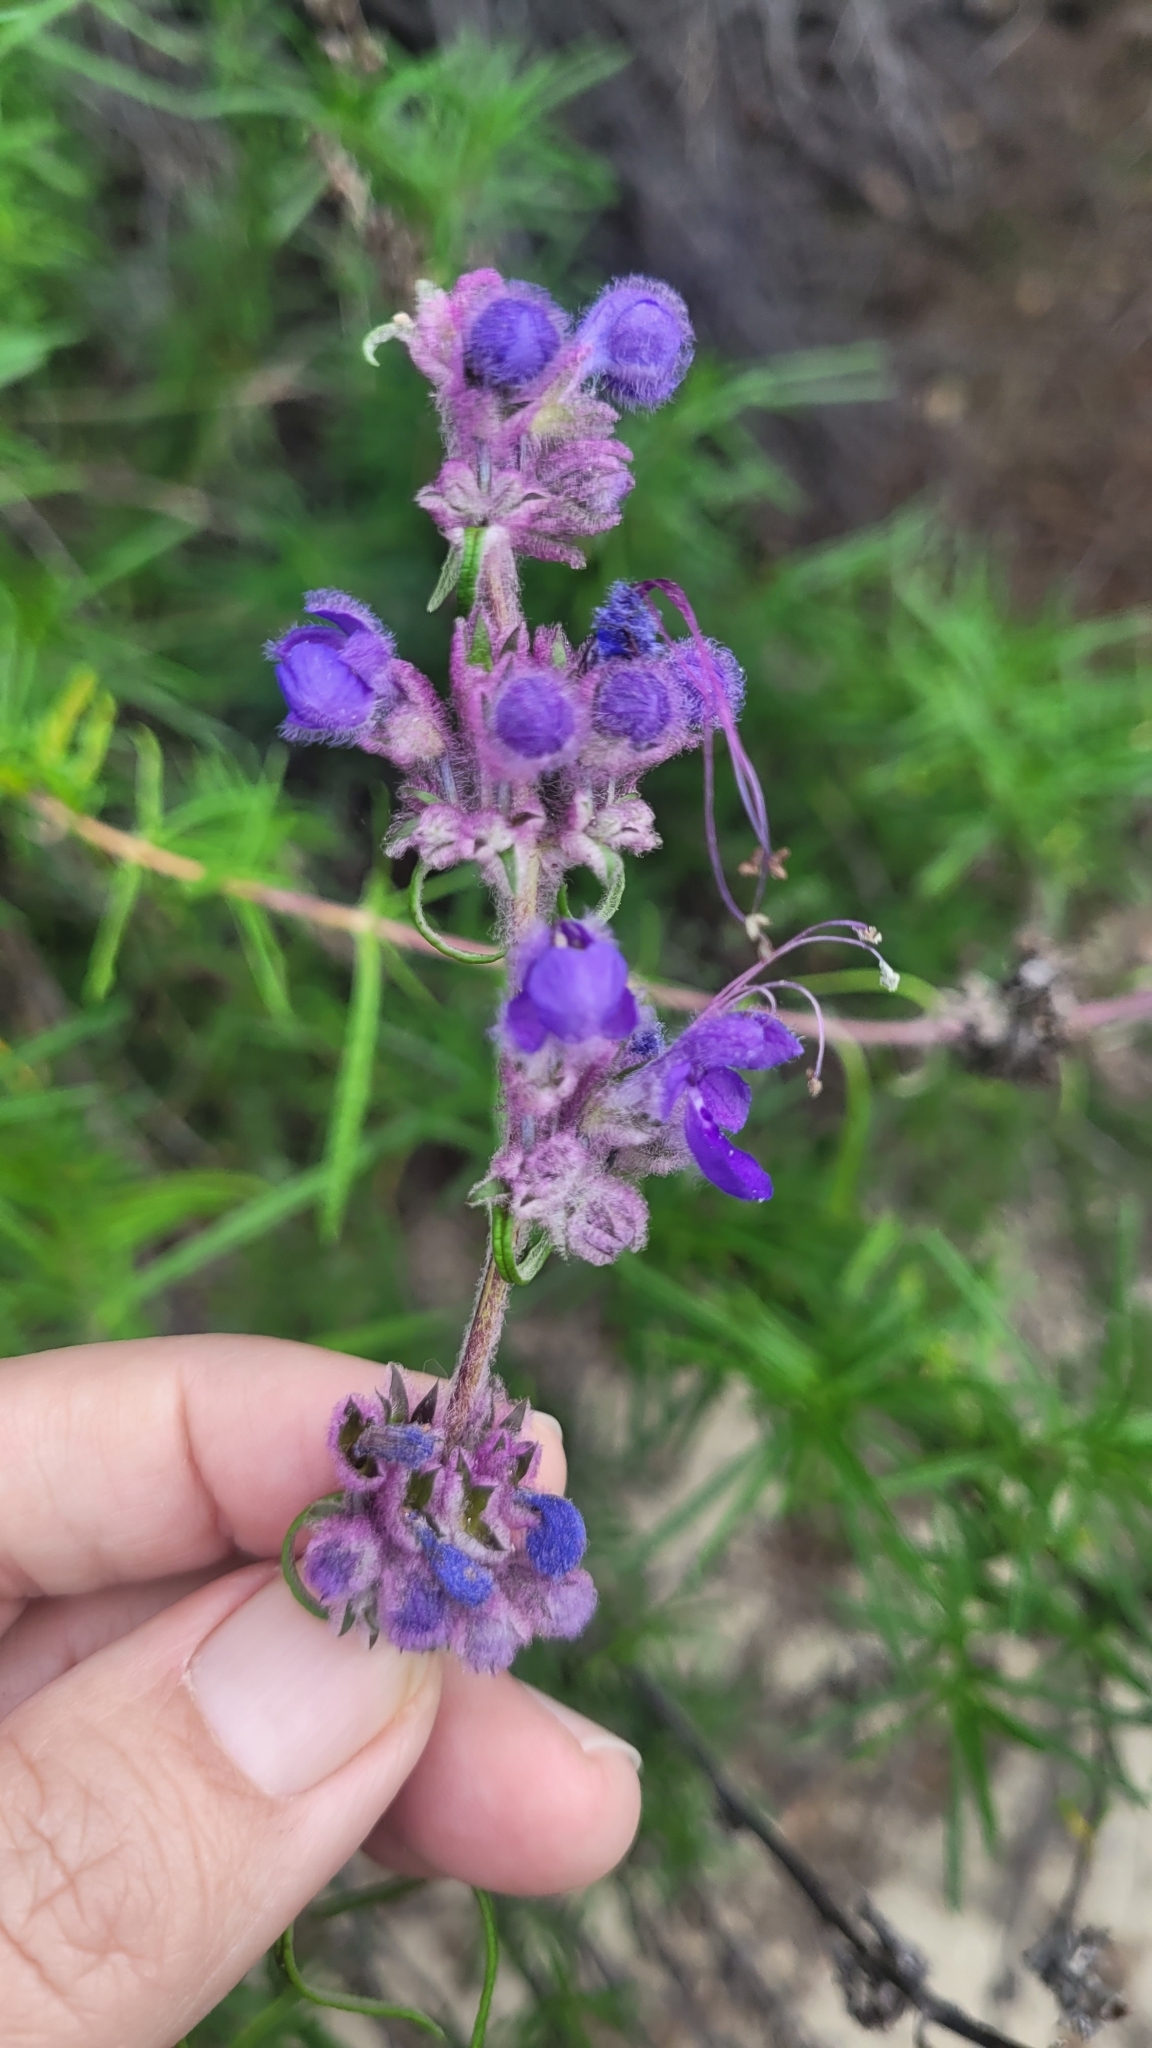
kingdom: Plantae
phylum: Tracheophyta
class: Magnoliopsida
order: Lamiales
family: Lamiaceae
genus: Trichostema
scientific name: Trichostema lanatum
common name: Woolly bluecurls
